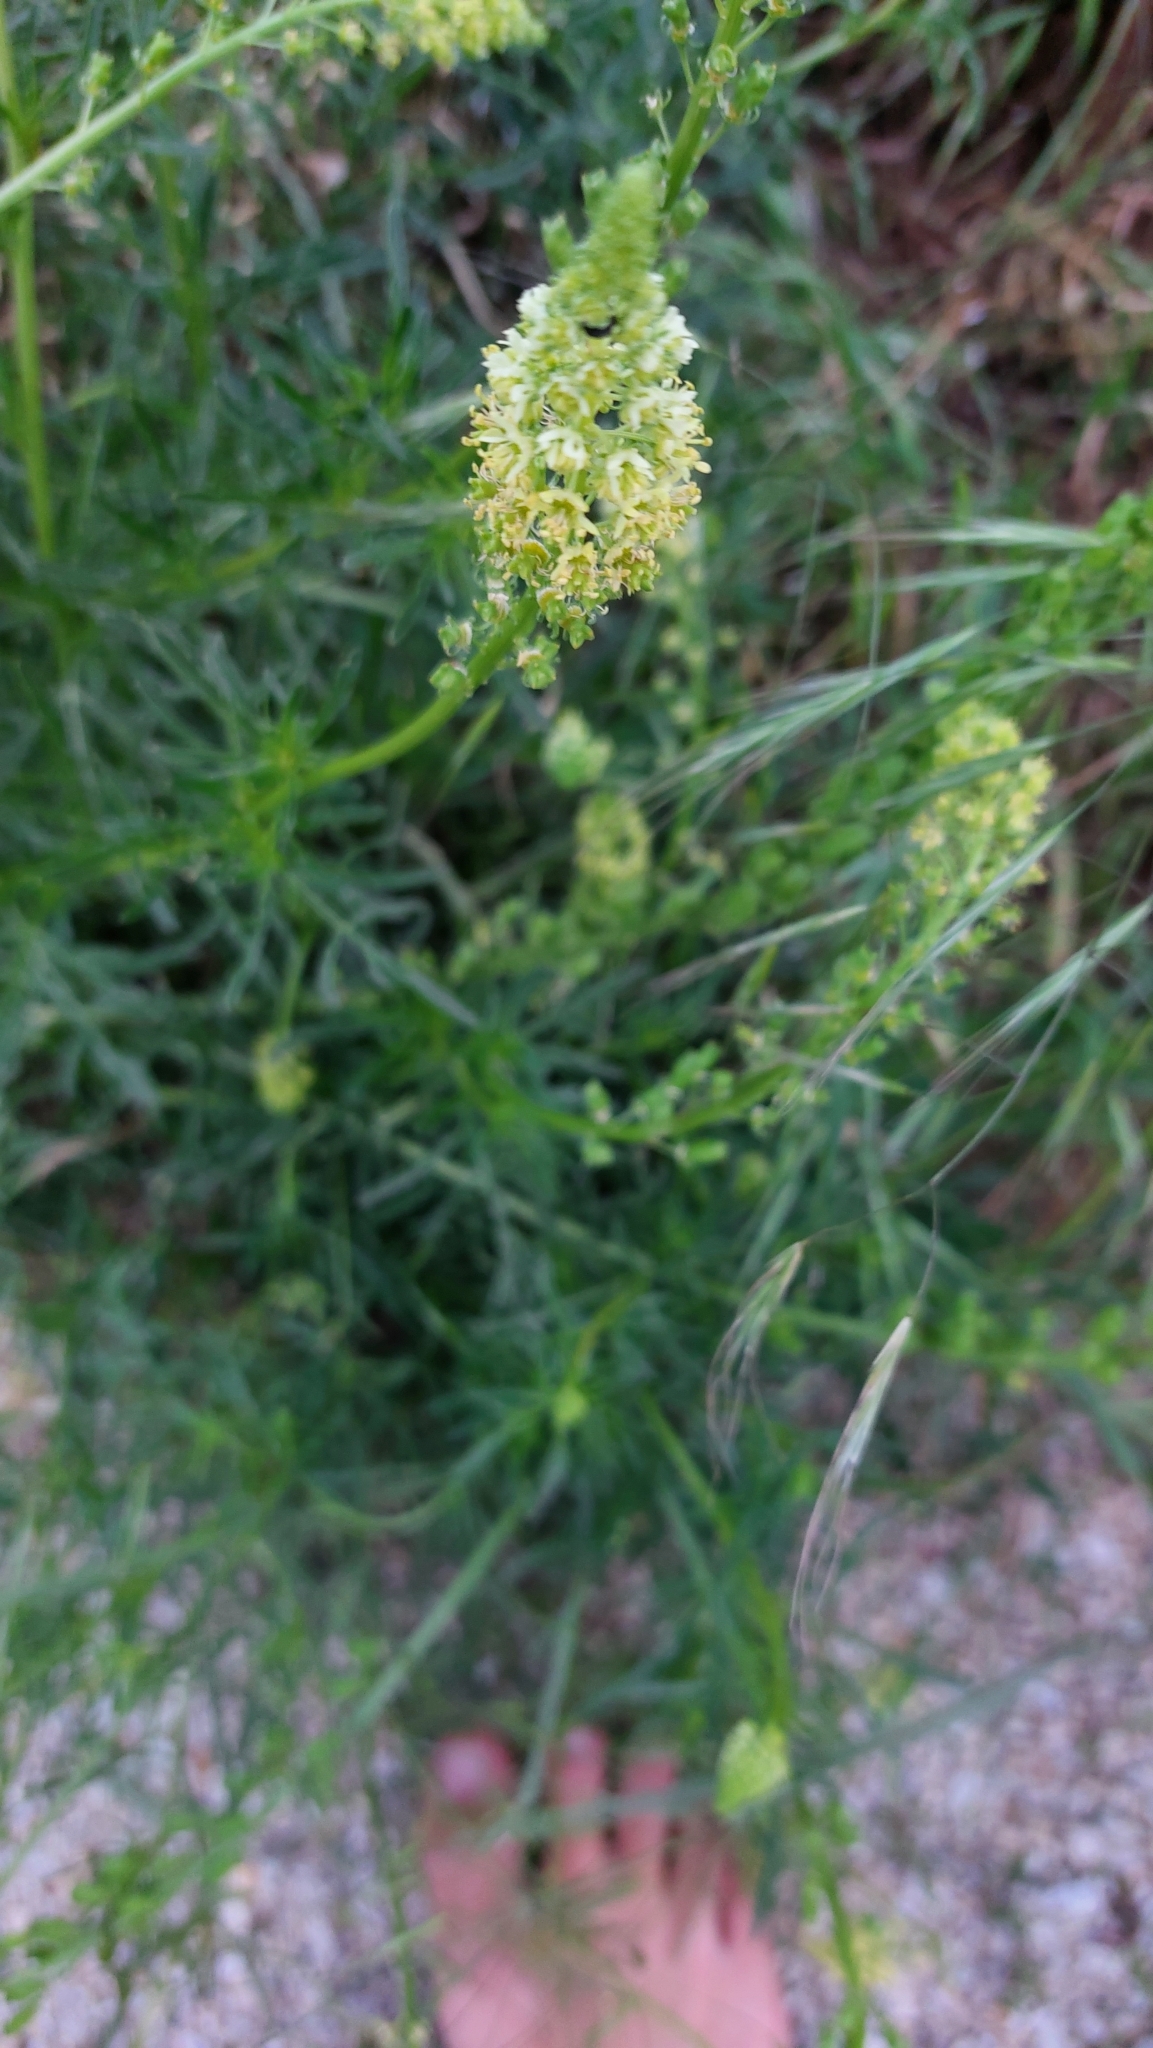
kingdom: Plantae
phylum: Tracheophyta
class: Magnoliopsida
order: Brassicales
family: Resedaceae
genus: Reseda
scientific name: Reseda lutea
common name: Wild mignonette
